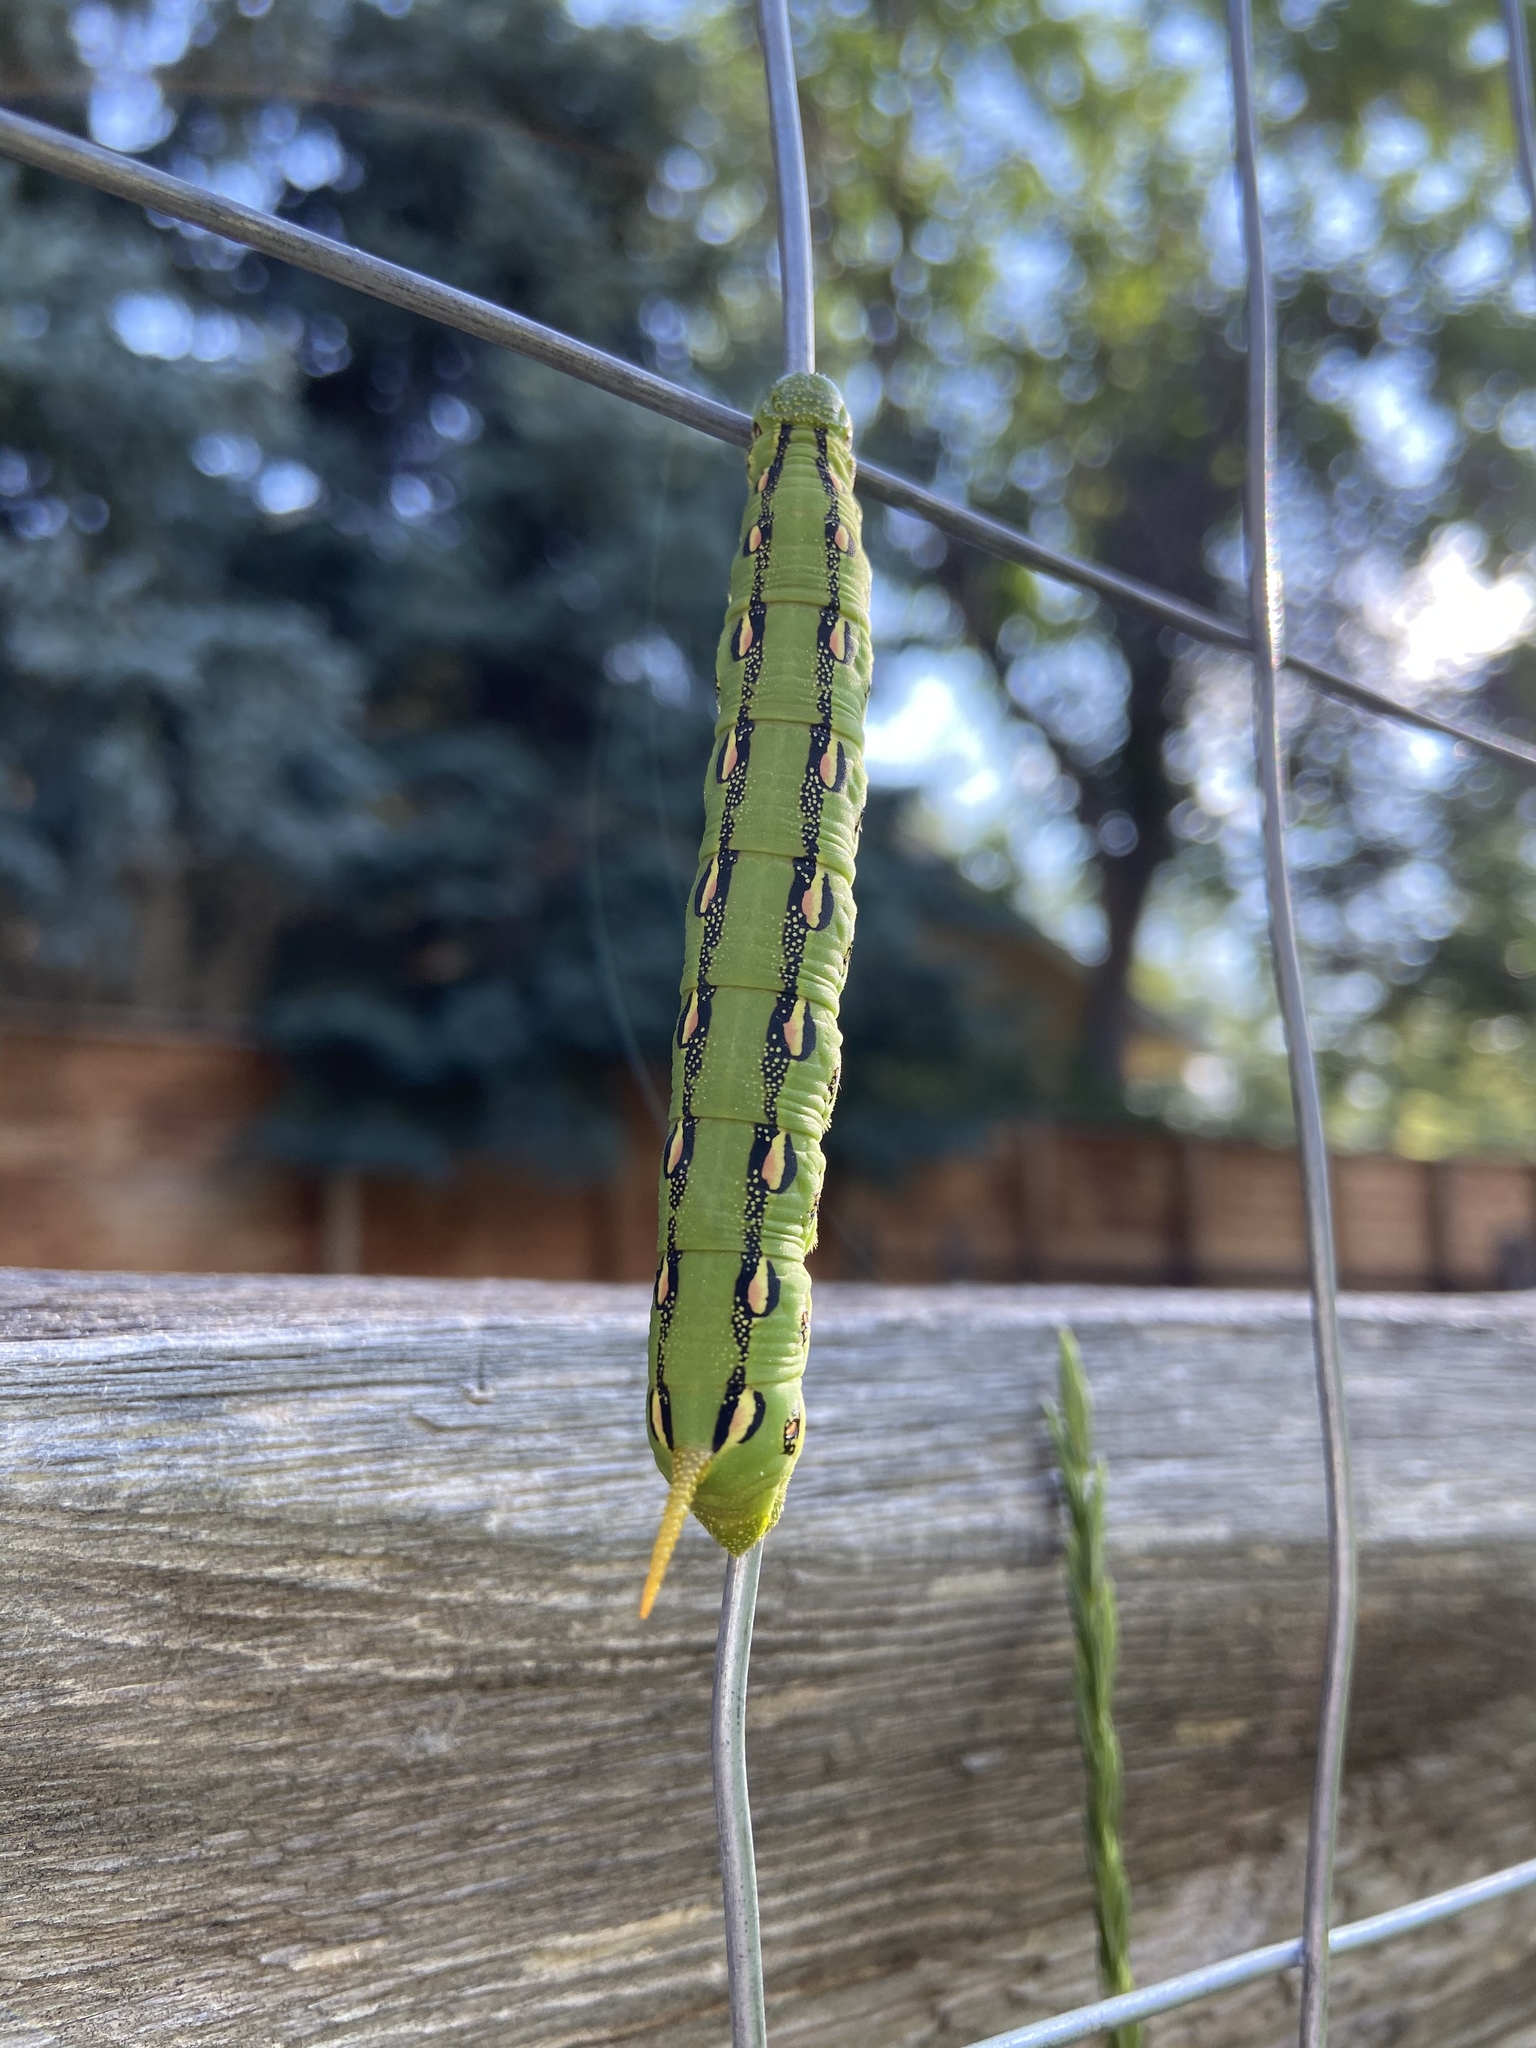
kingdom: Animalia
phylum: Arthropoda
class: Insecta
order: Lepidoptera
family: Sphingidae
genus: Hyles
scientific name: Hyles lineata
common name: White-lined sphinx
